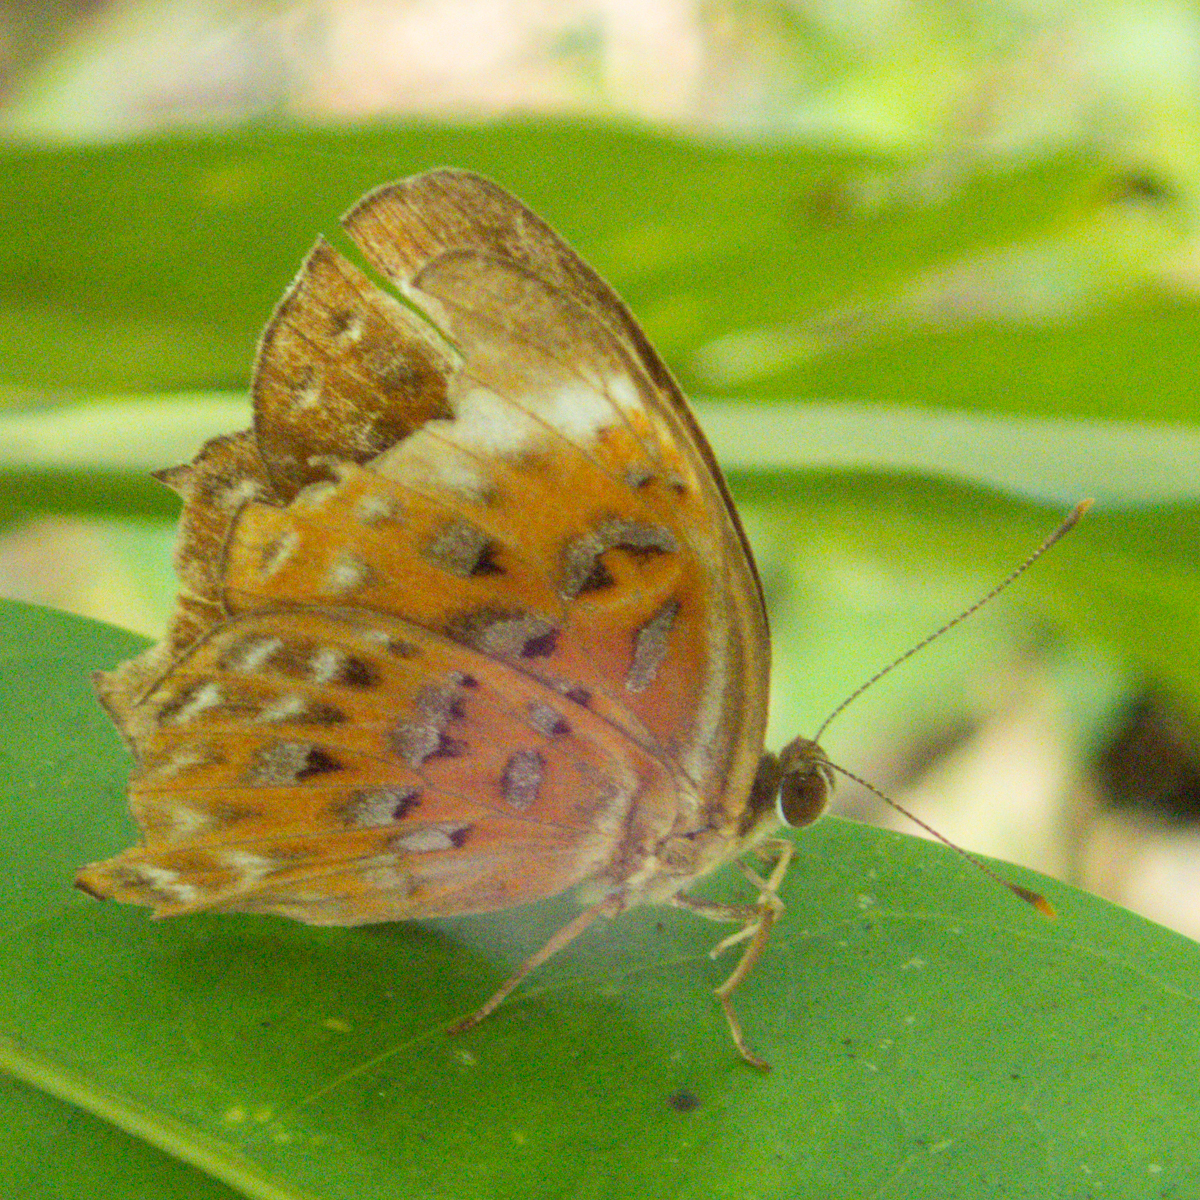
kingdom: Animalia
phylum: Arthropoda
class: Insecta
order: Lepidoptera
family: Erebidae
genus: Dysschema
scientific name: Dysschema
